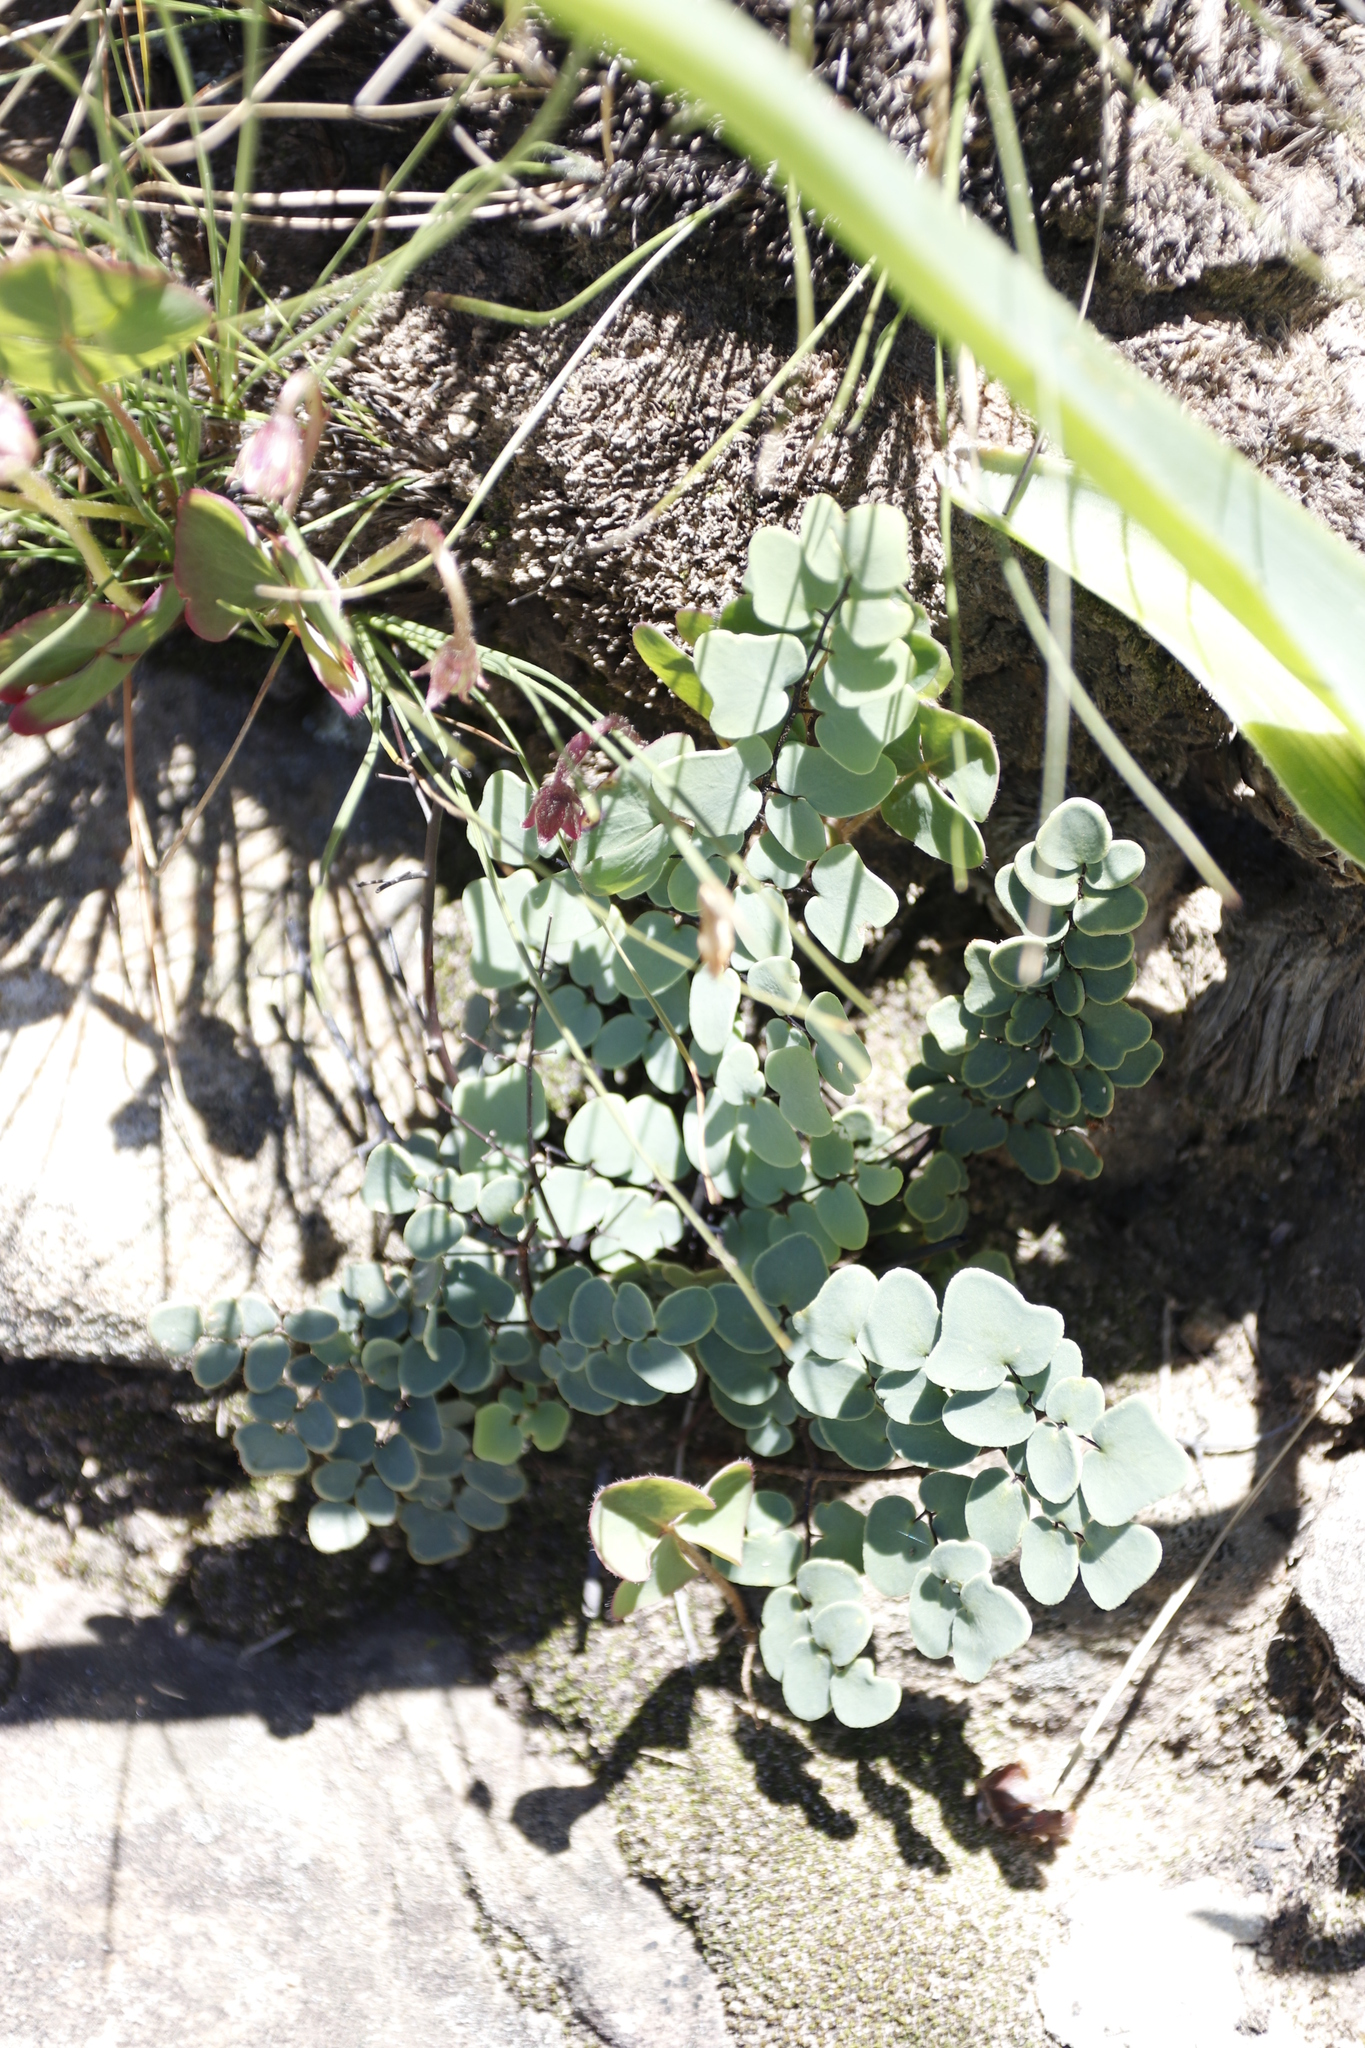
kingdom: Plantae
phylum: Tracheophyta
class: Polypodiopsida
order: Polypodiales
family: Pteridaceae
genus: Pellaea
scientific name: Pellaea calomelanos
